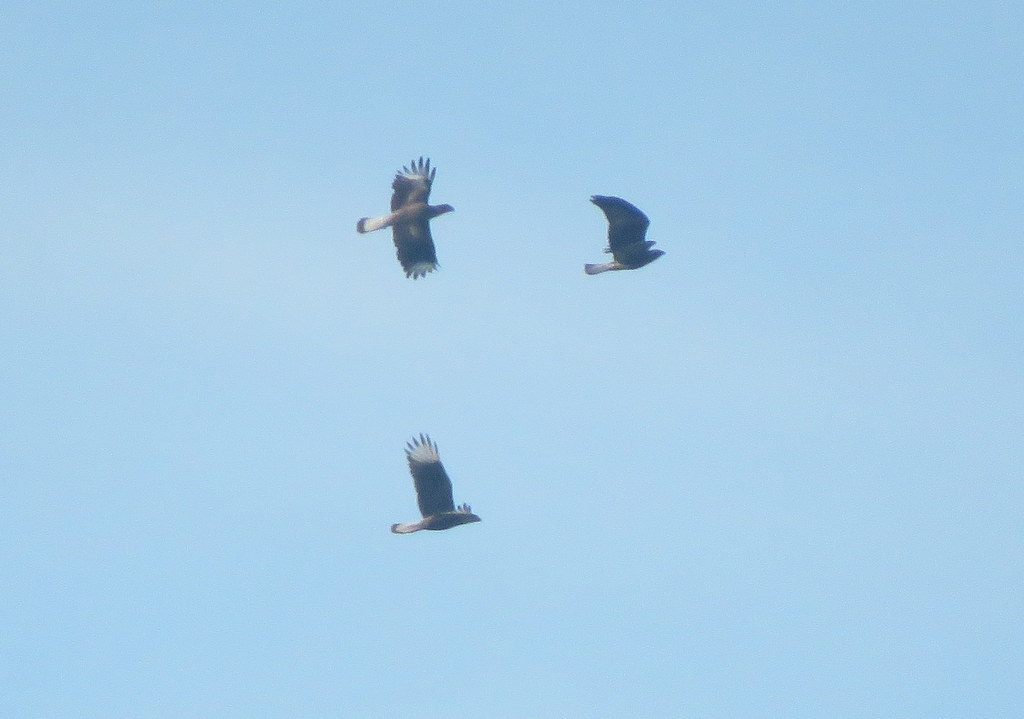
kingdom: Animalia
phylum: Chordata
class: Aves
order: Accipitriformes
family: Accipitridae
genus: Buteo
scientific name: Buteo albicaudatus
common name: White-tailed hawk
